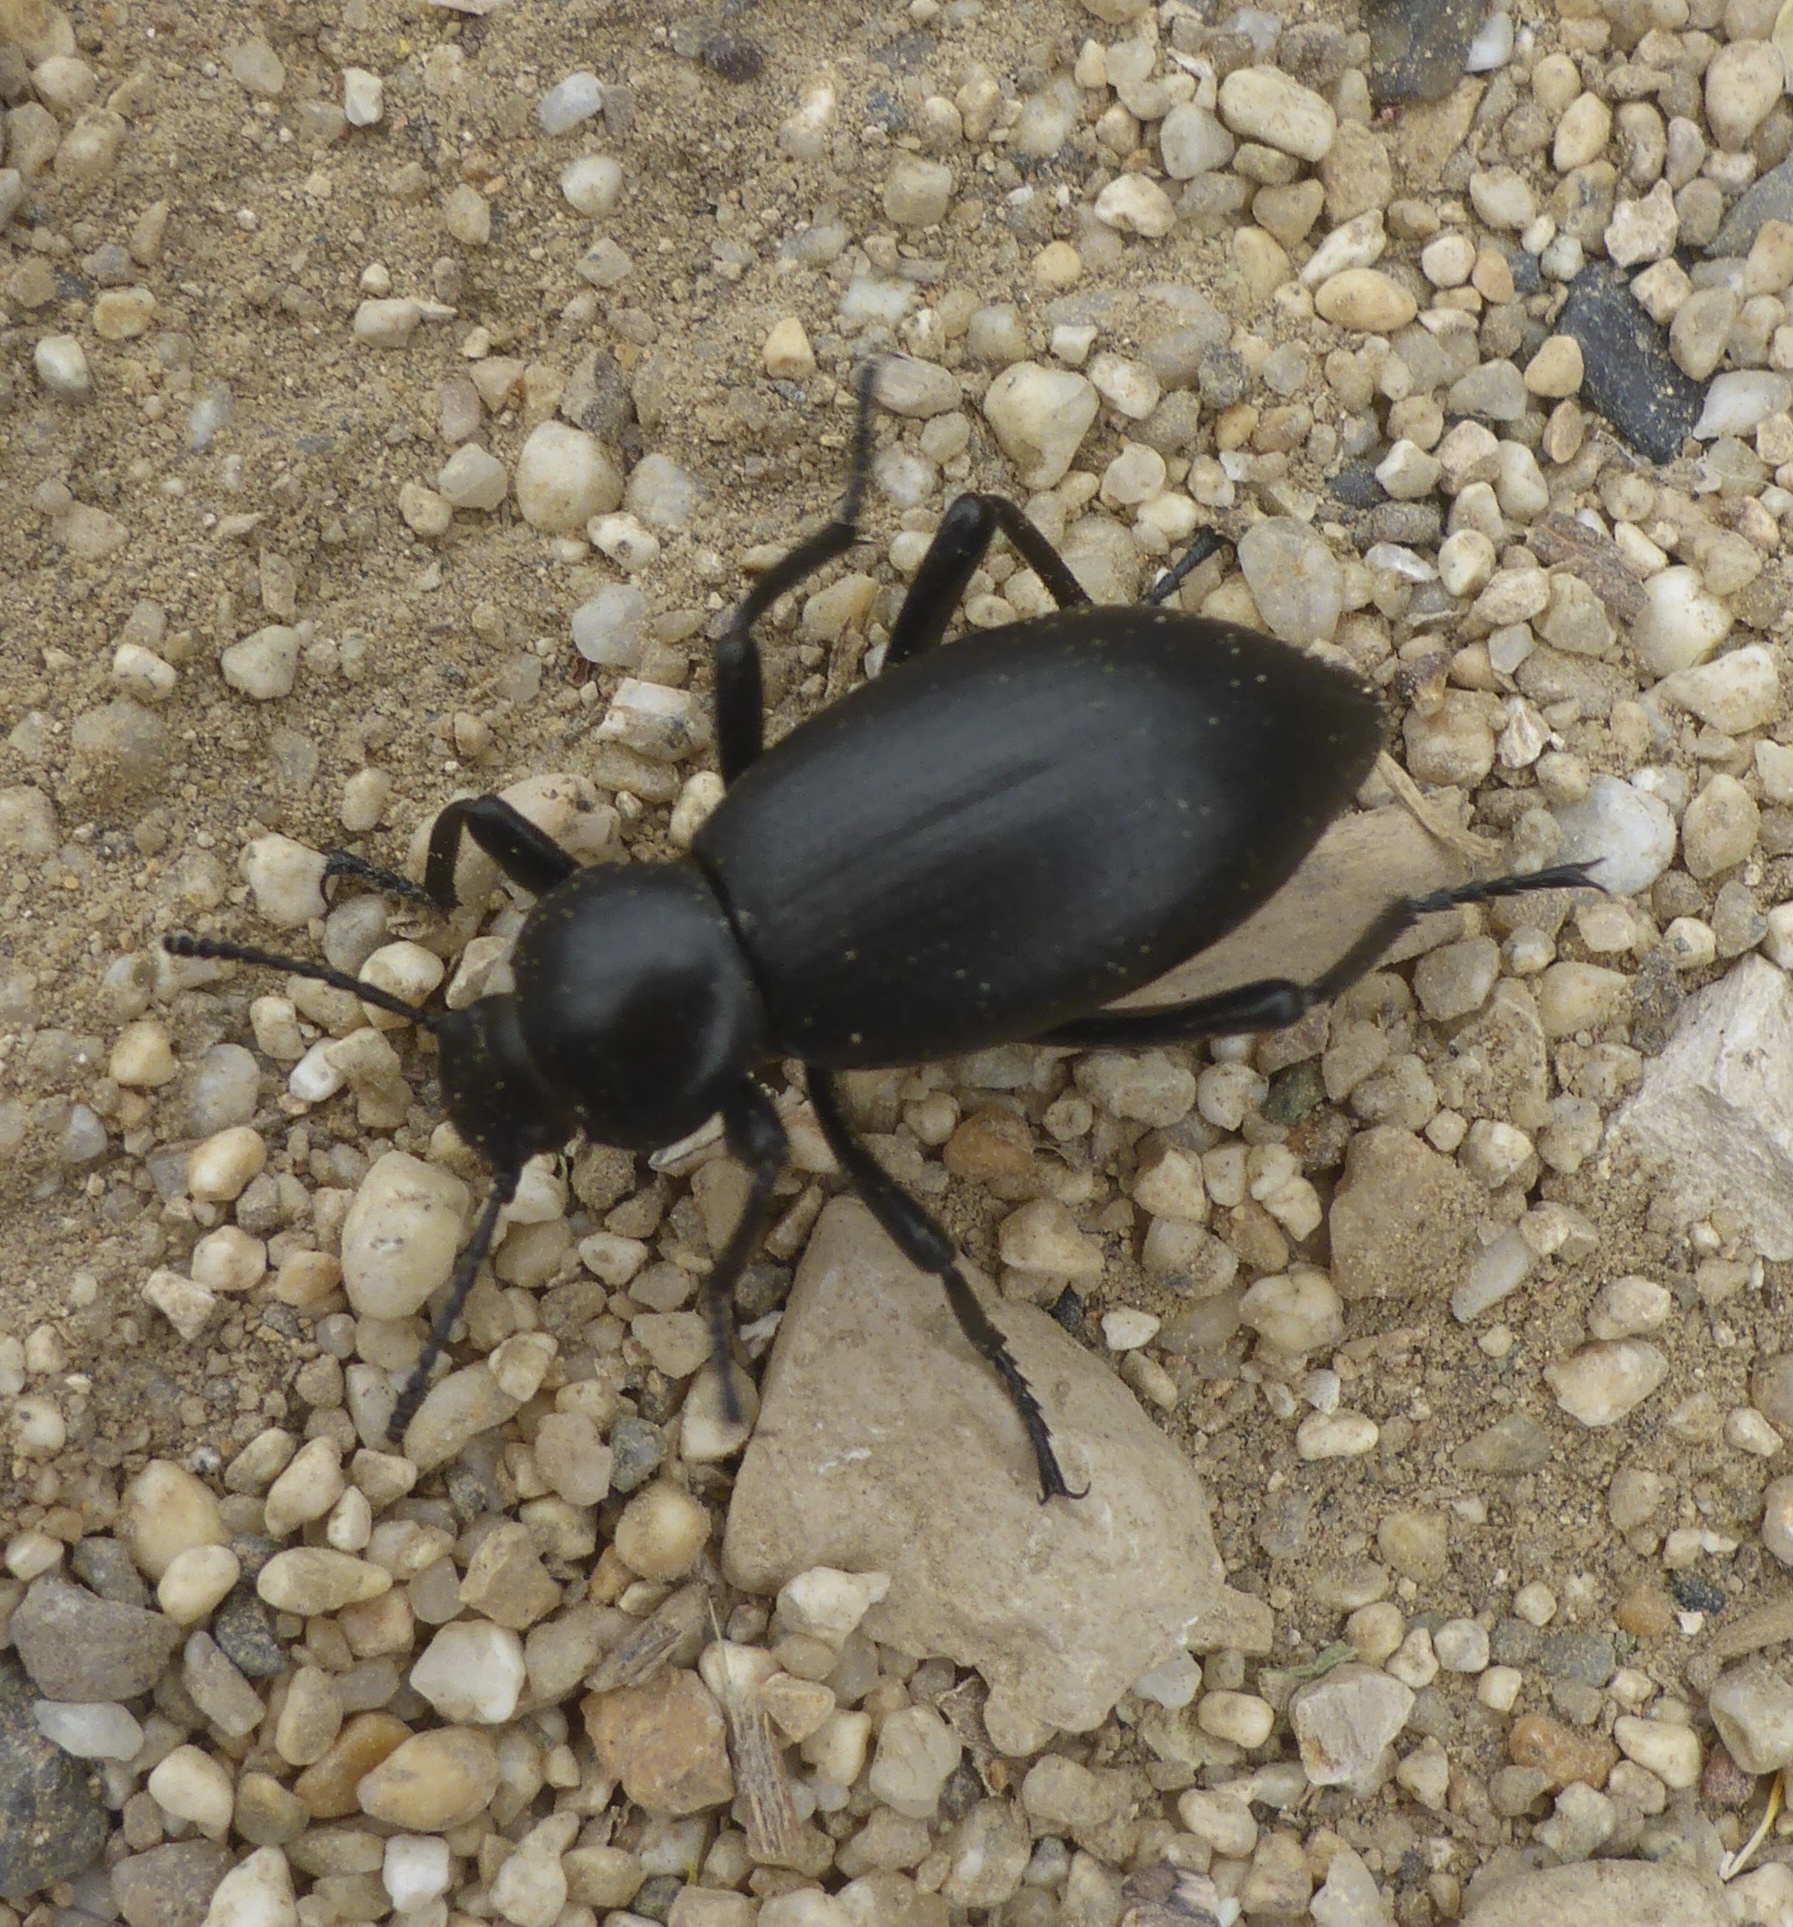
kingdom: Animalia
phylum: Arthropoda
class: Insecta
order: Coleoptera
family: Tenebrionidae
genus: Eleodes
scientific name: Eleodes dentipes
